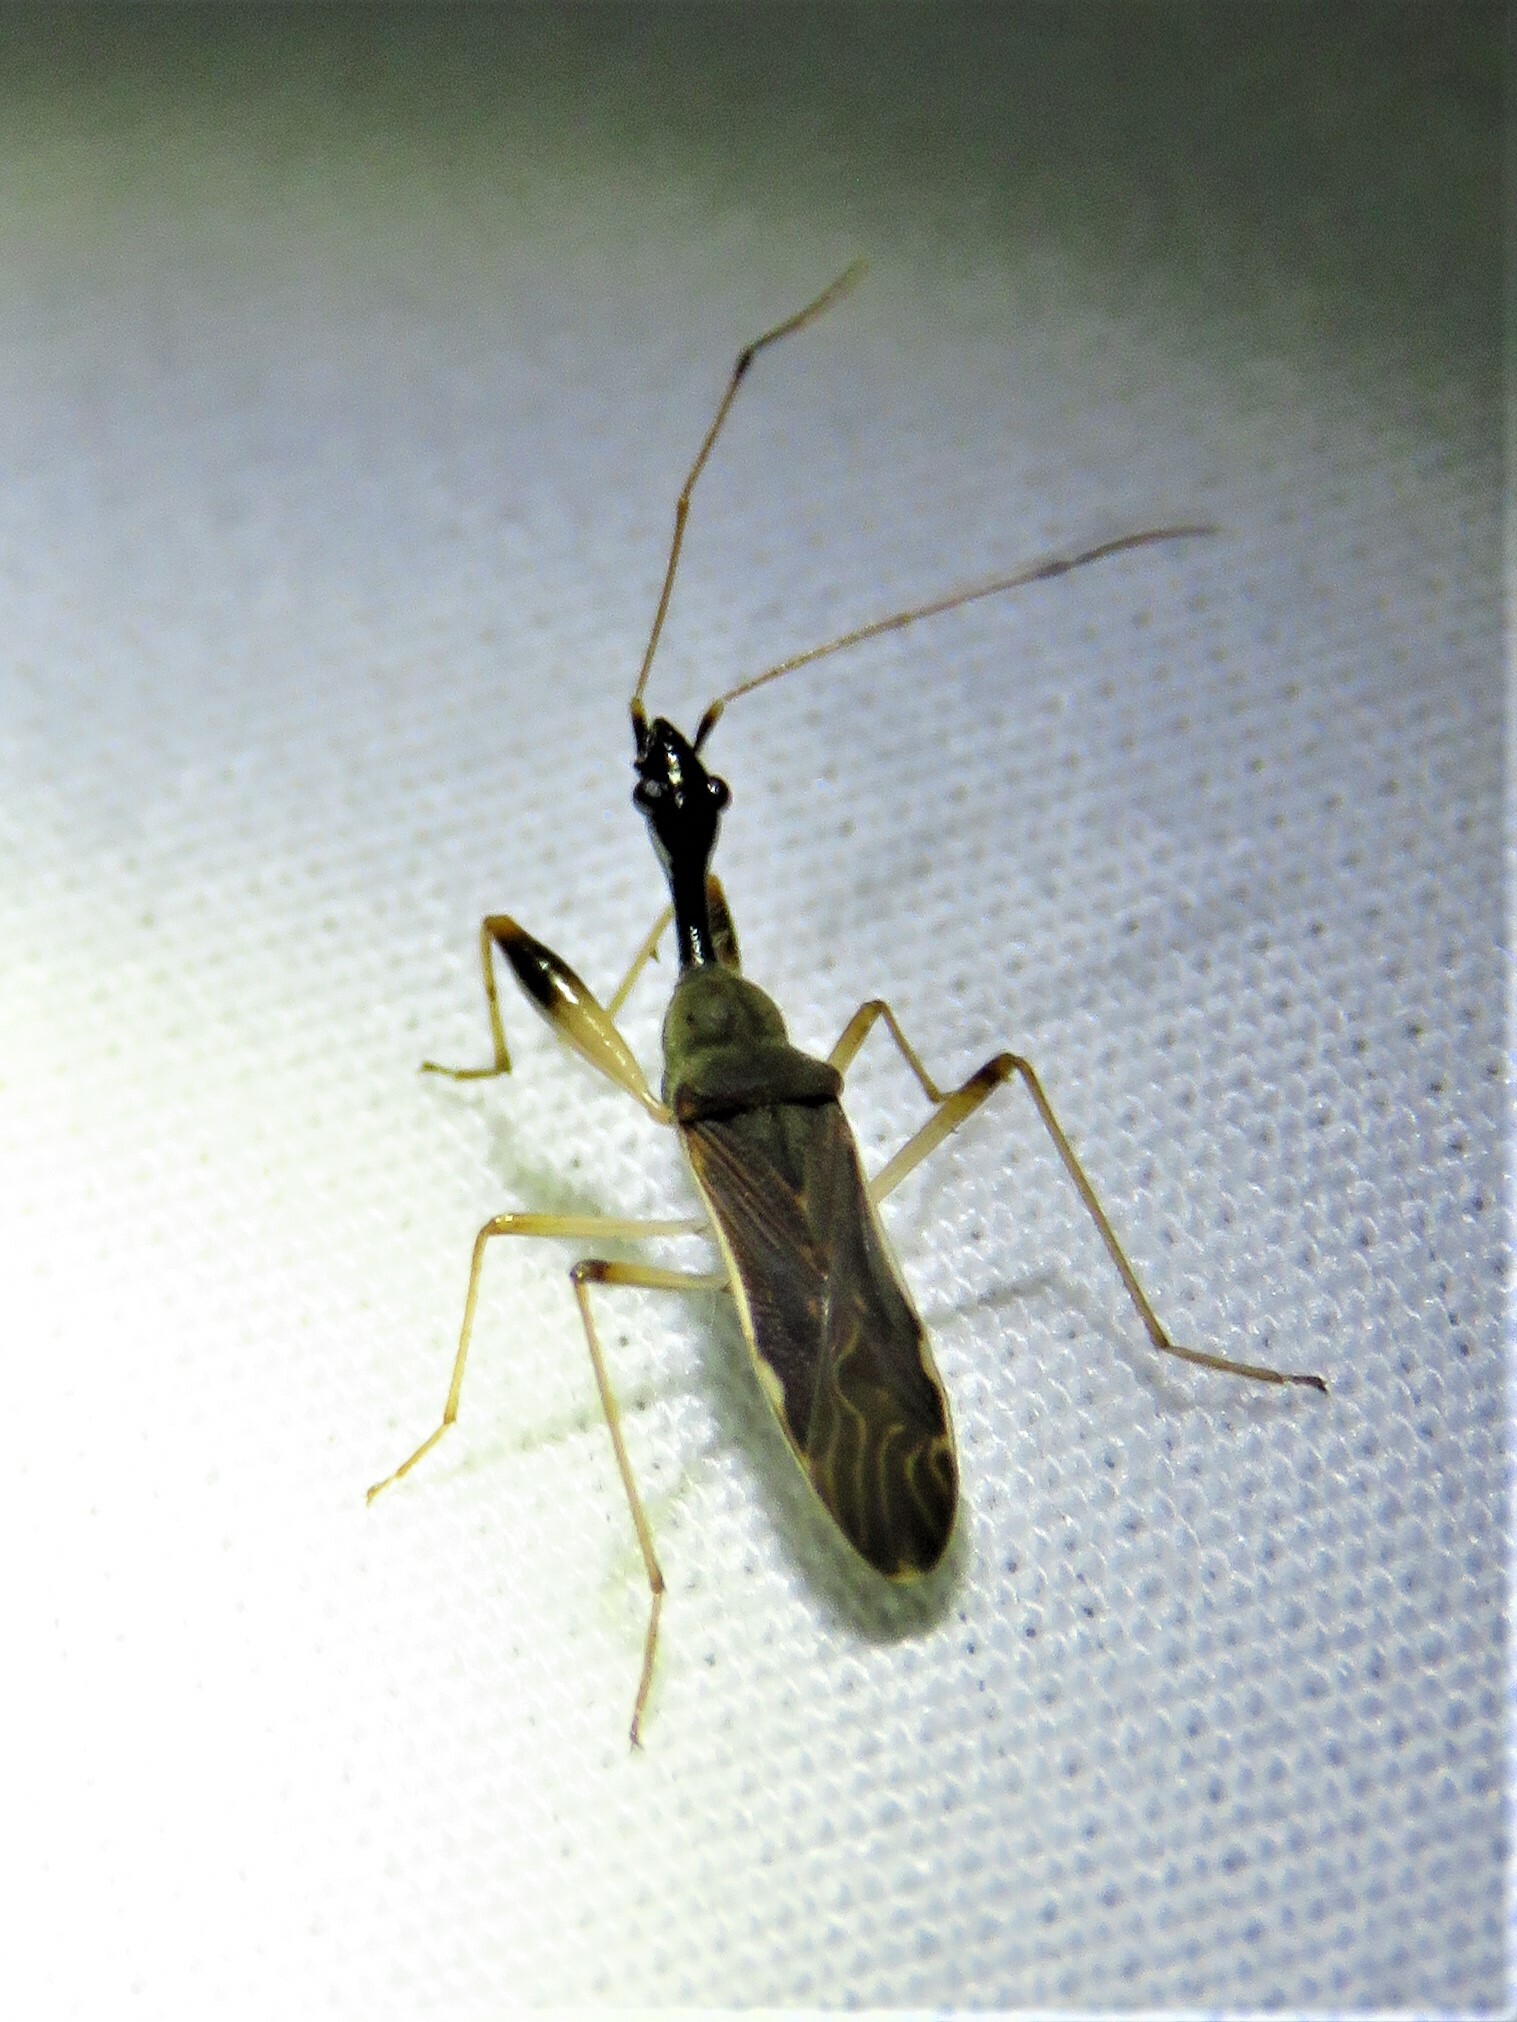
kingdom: Animalia
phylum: Arthropoda
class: Insecta
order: Hemiptera
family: Rhyparochromidae
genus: Myodocha
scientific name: Myodocha serripes
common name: Long-necked seed bug
